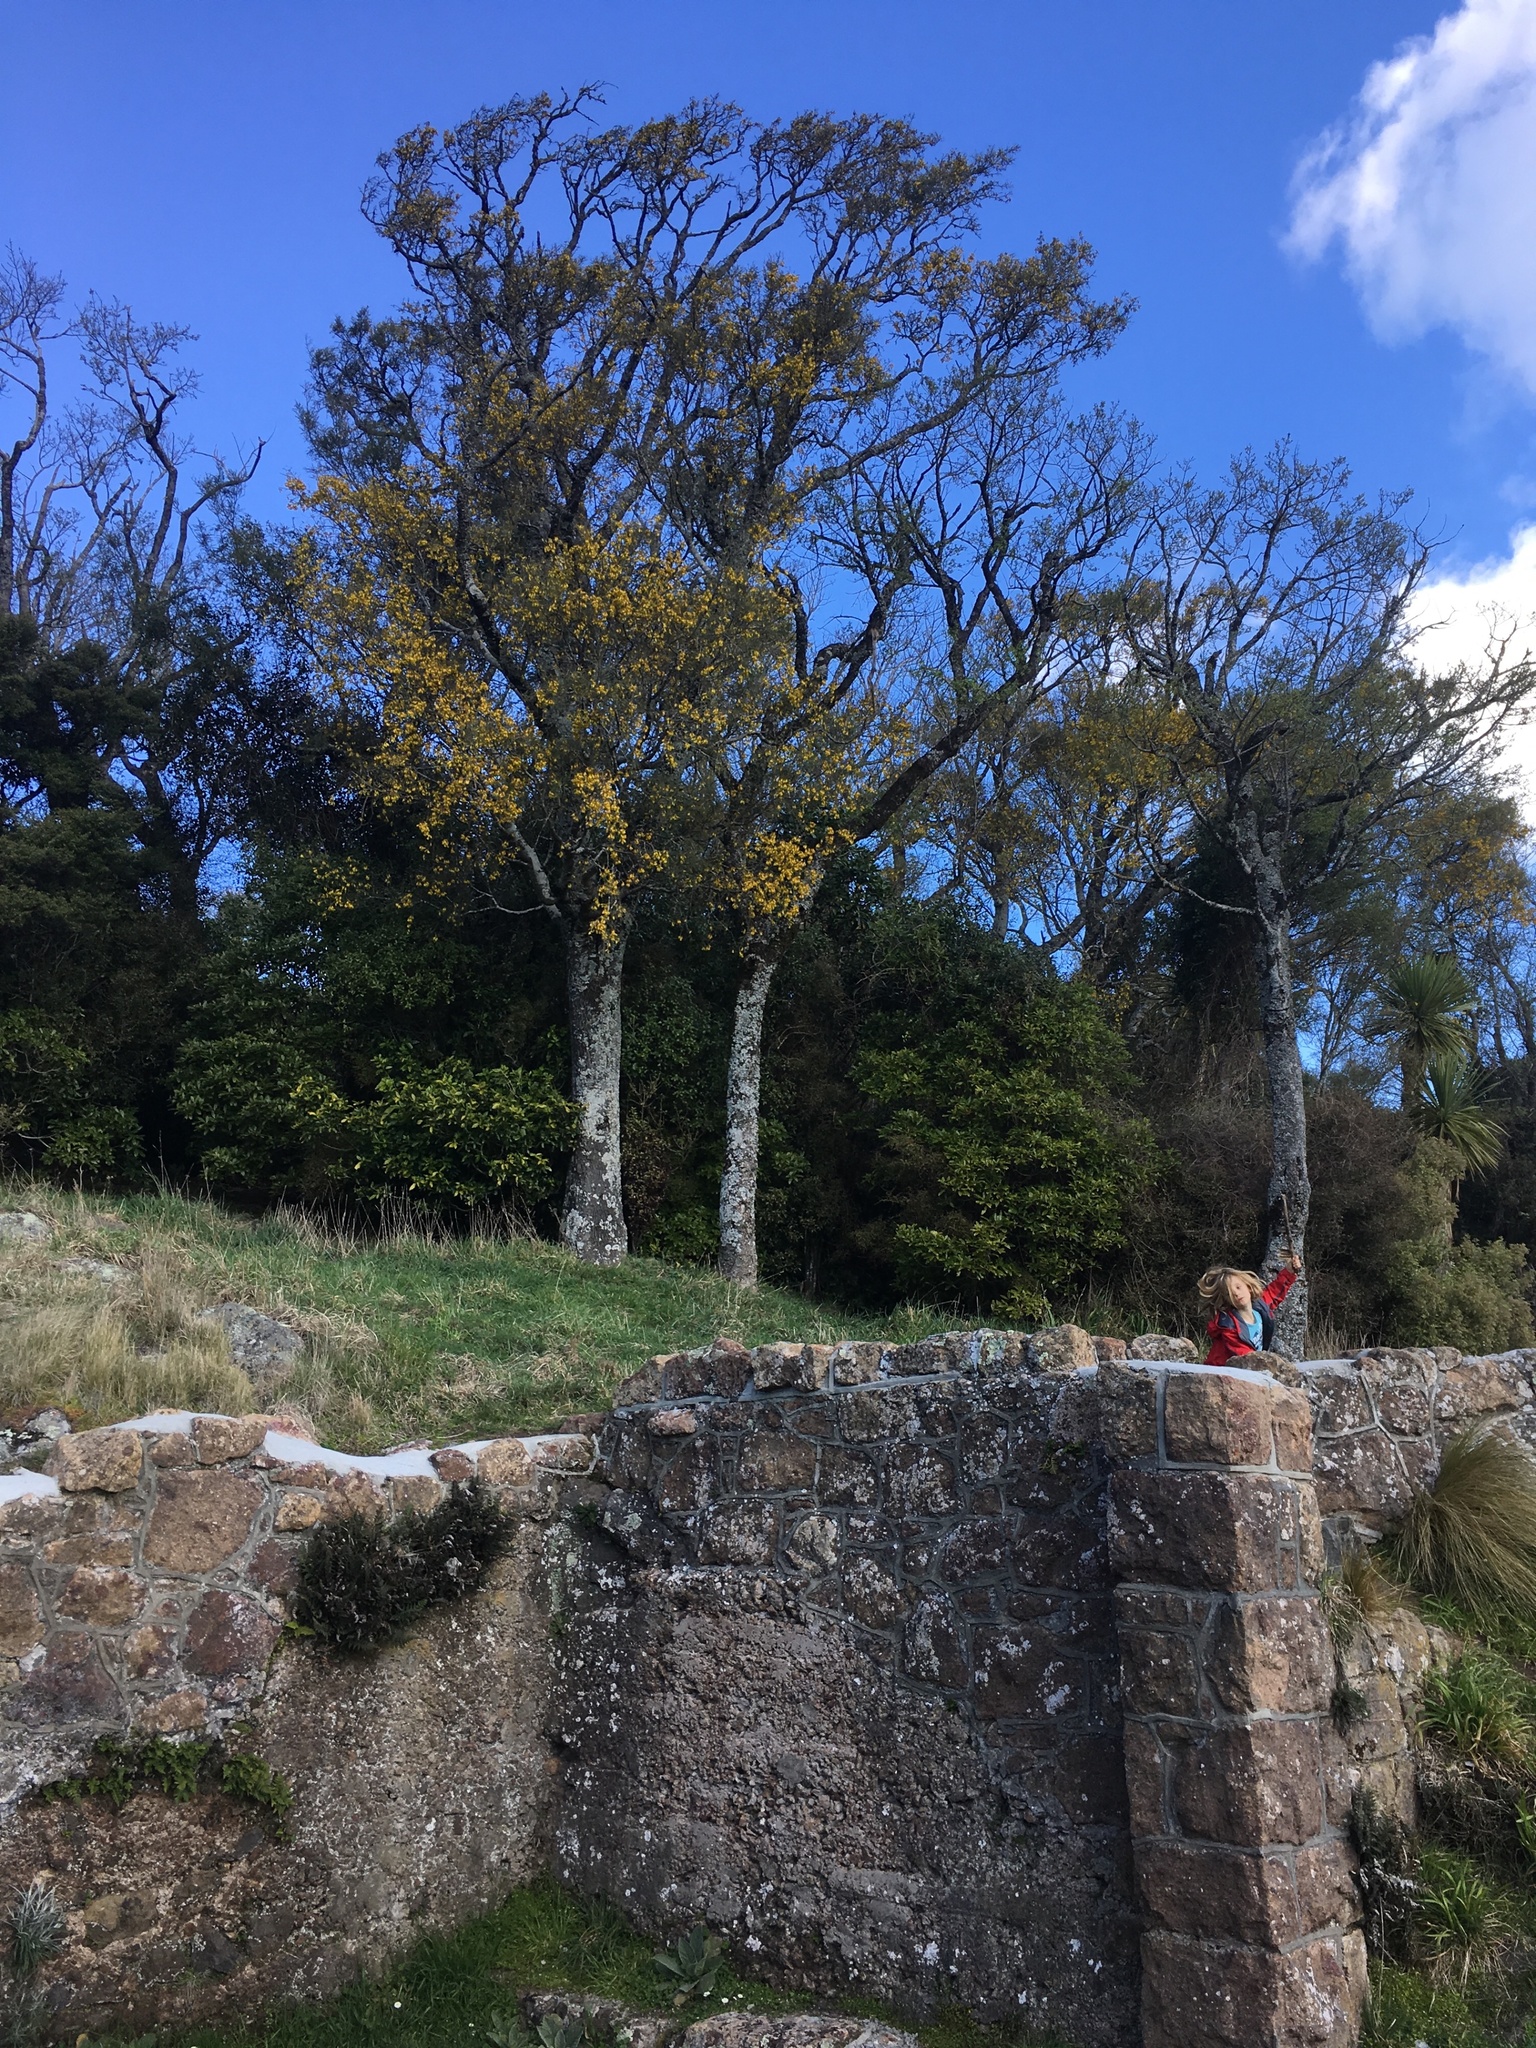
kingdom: Plantae
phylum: Tracheophyta
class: Magnoliopsida
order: Fabales
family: Fabaceae
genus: Sophora
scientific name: Sophora microphylla
